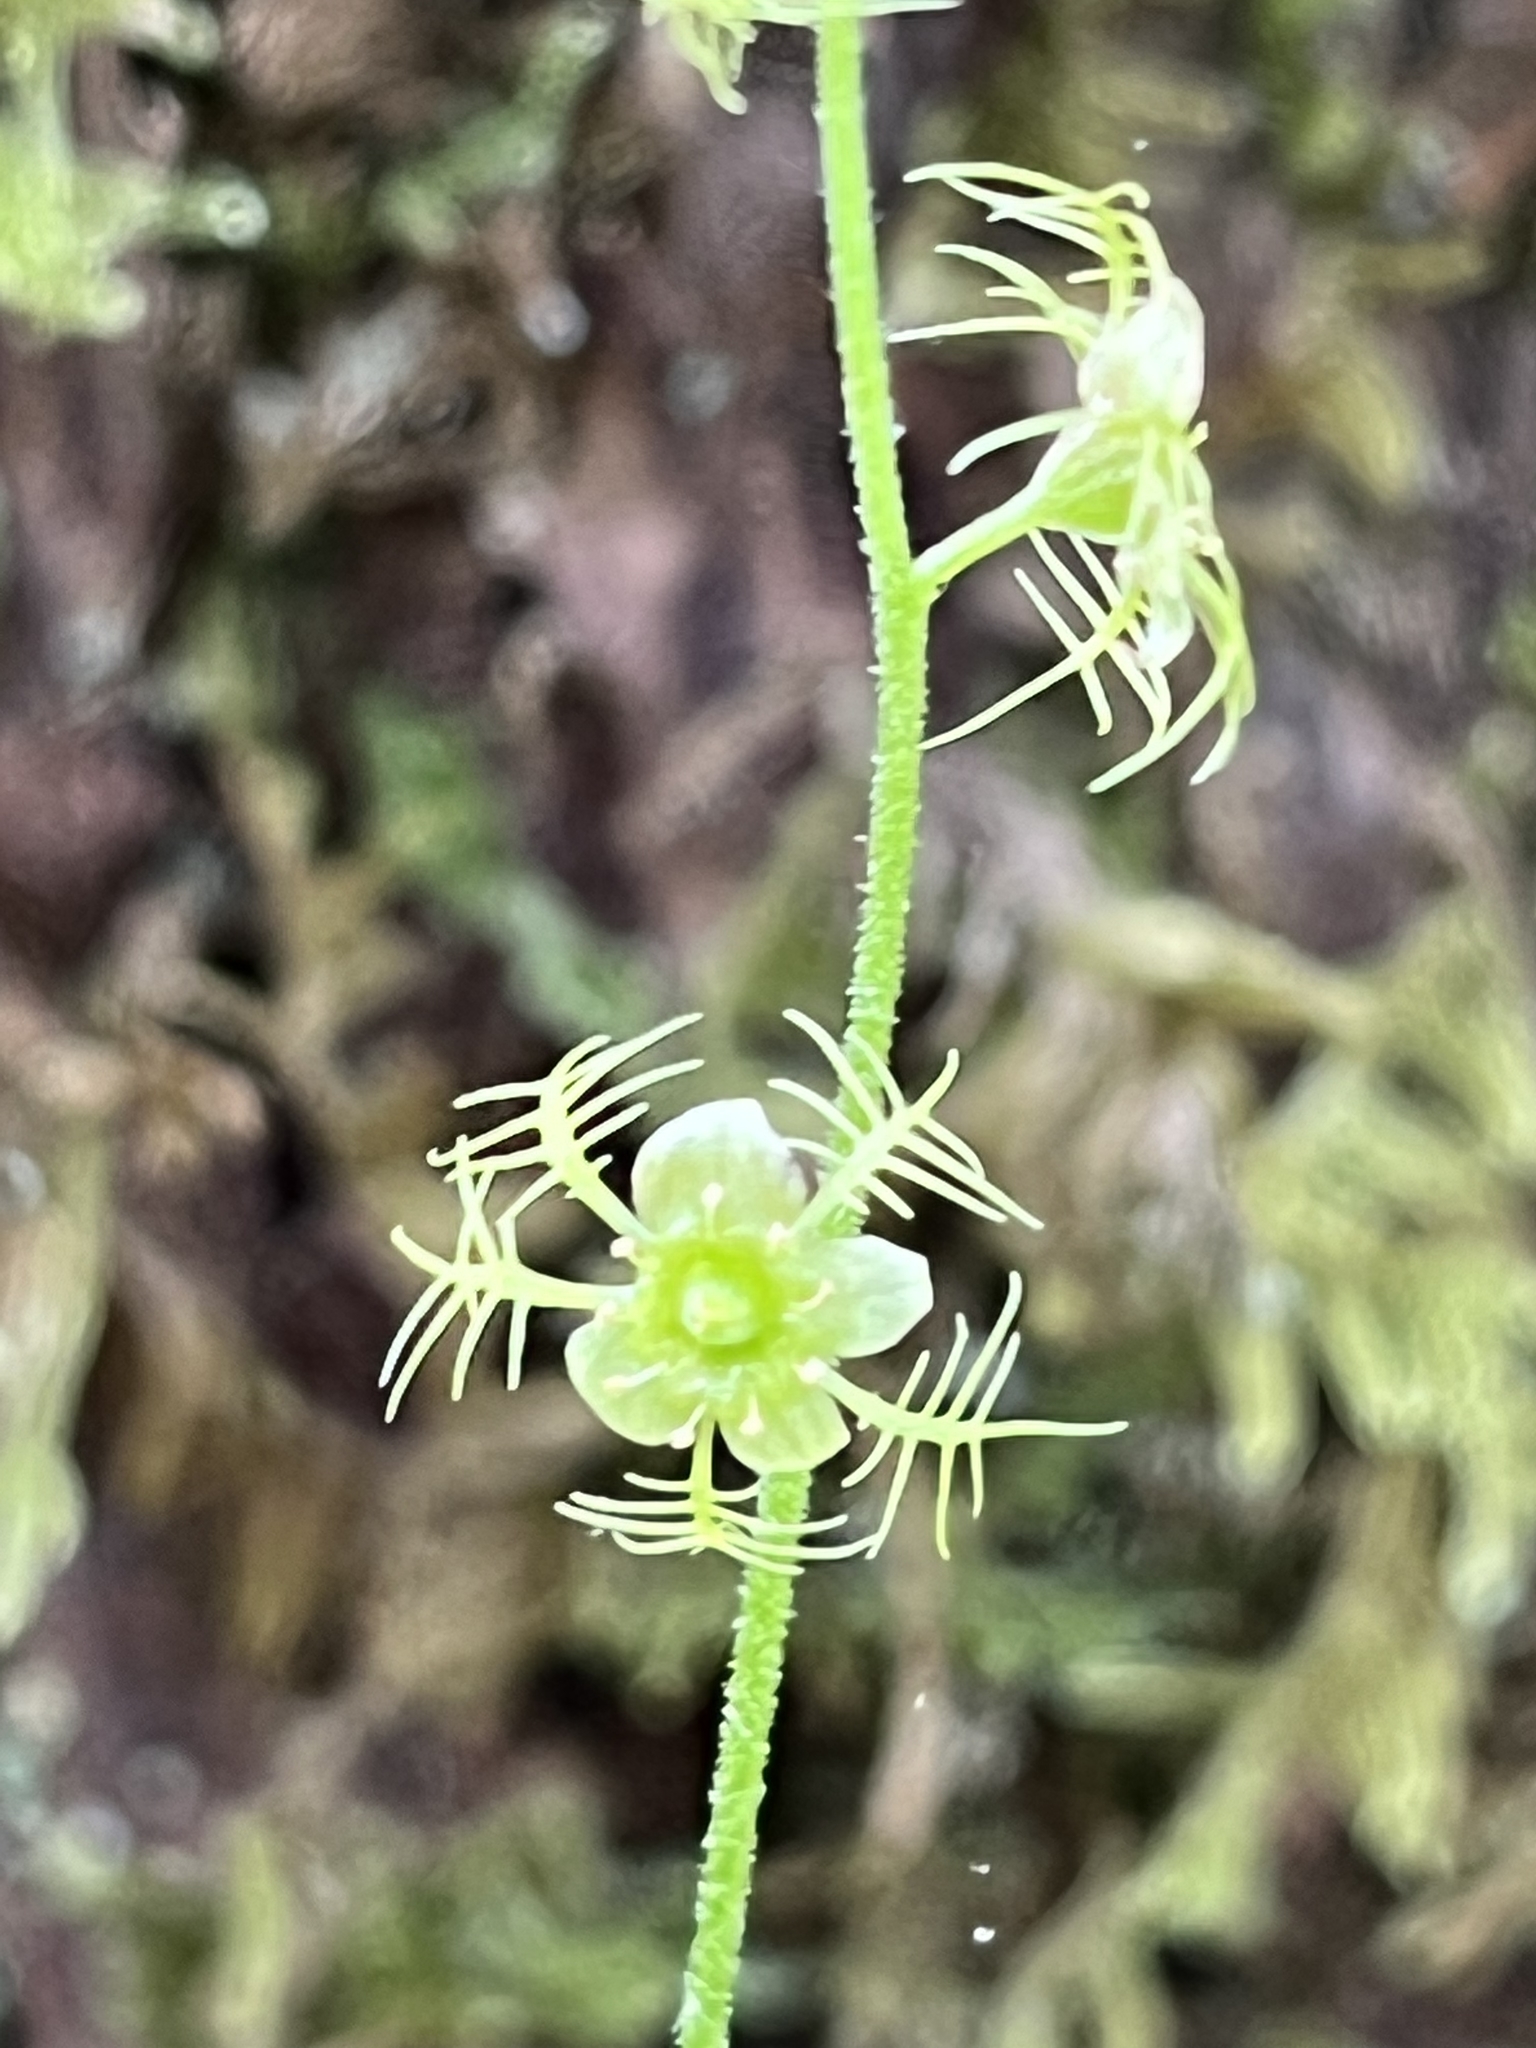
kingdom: Plantae
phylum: Tracheophyta
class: Magnoliopsida
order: Saxifragales
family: Saxifragaceae
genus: Mitella
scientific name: Mitella nuda
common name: Bare-stemmed bishop's-cap
